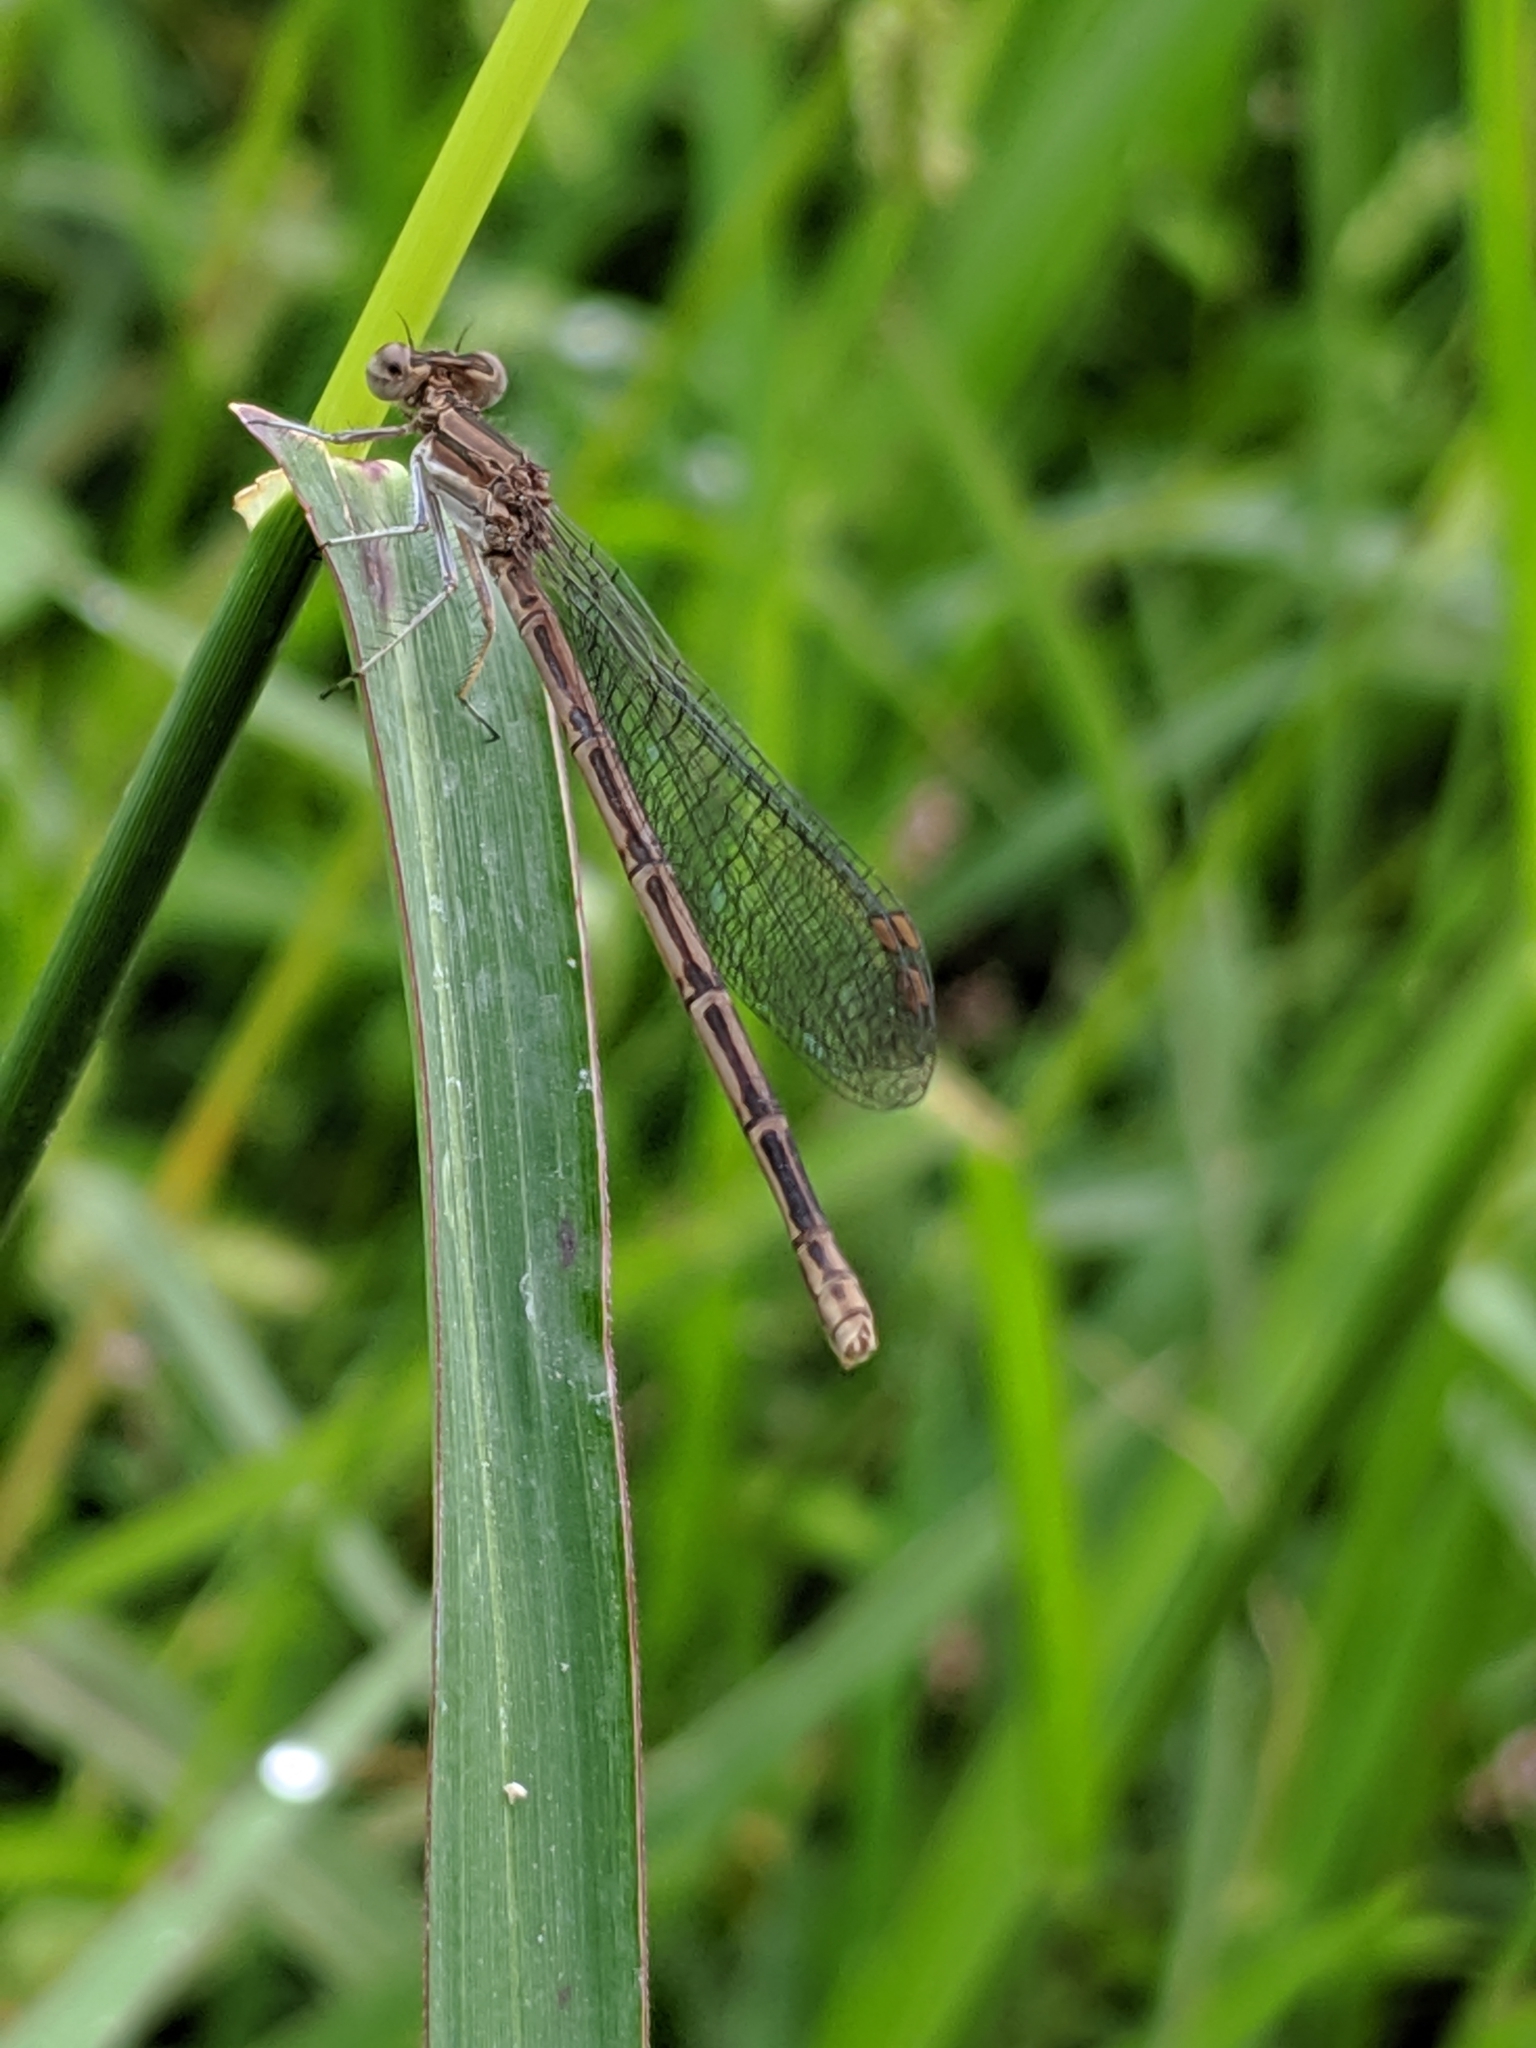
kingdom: Animalia
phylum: Arthropoda
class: Insecta
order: Odonata
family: Coenagrionidae
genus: Argia
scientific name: Argia
